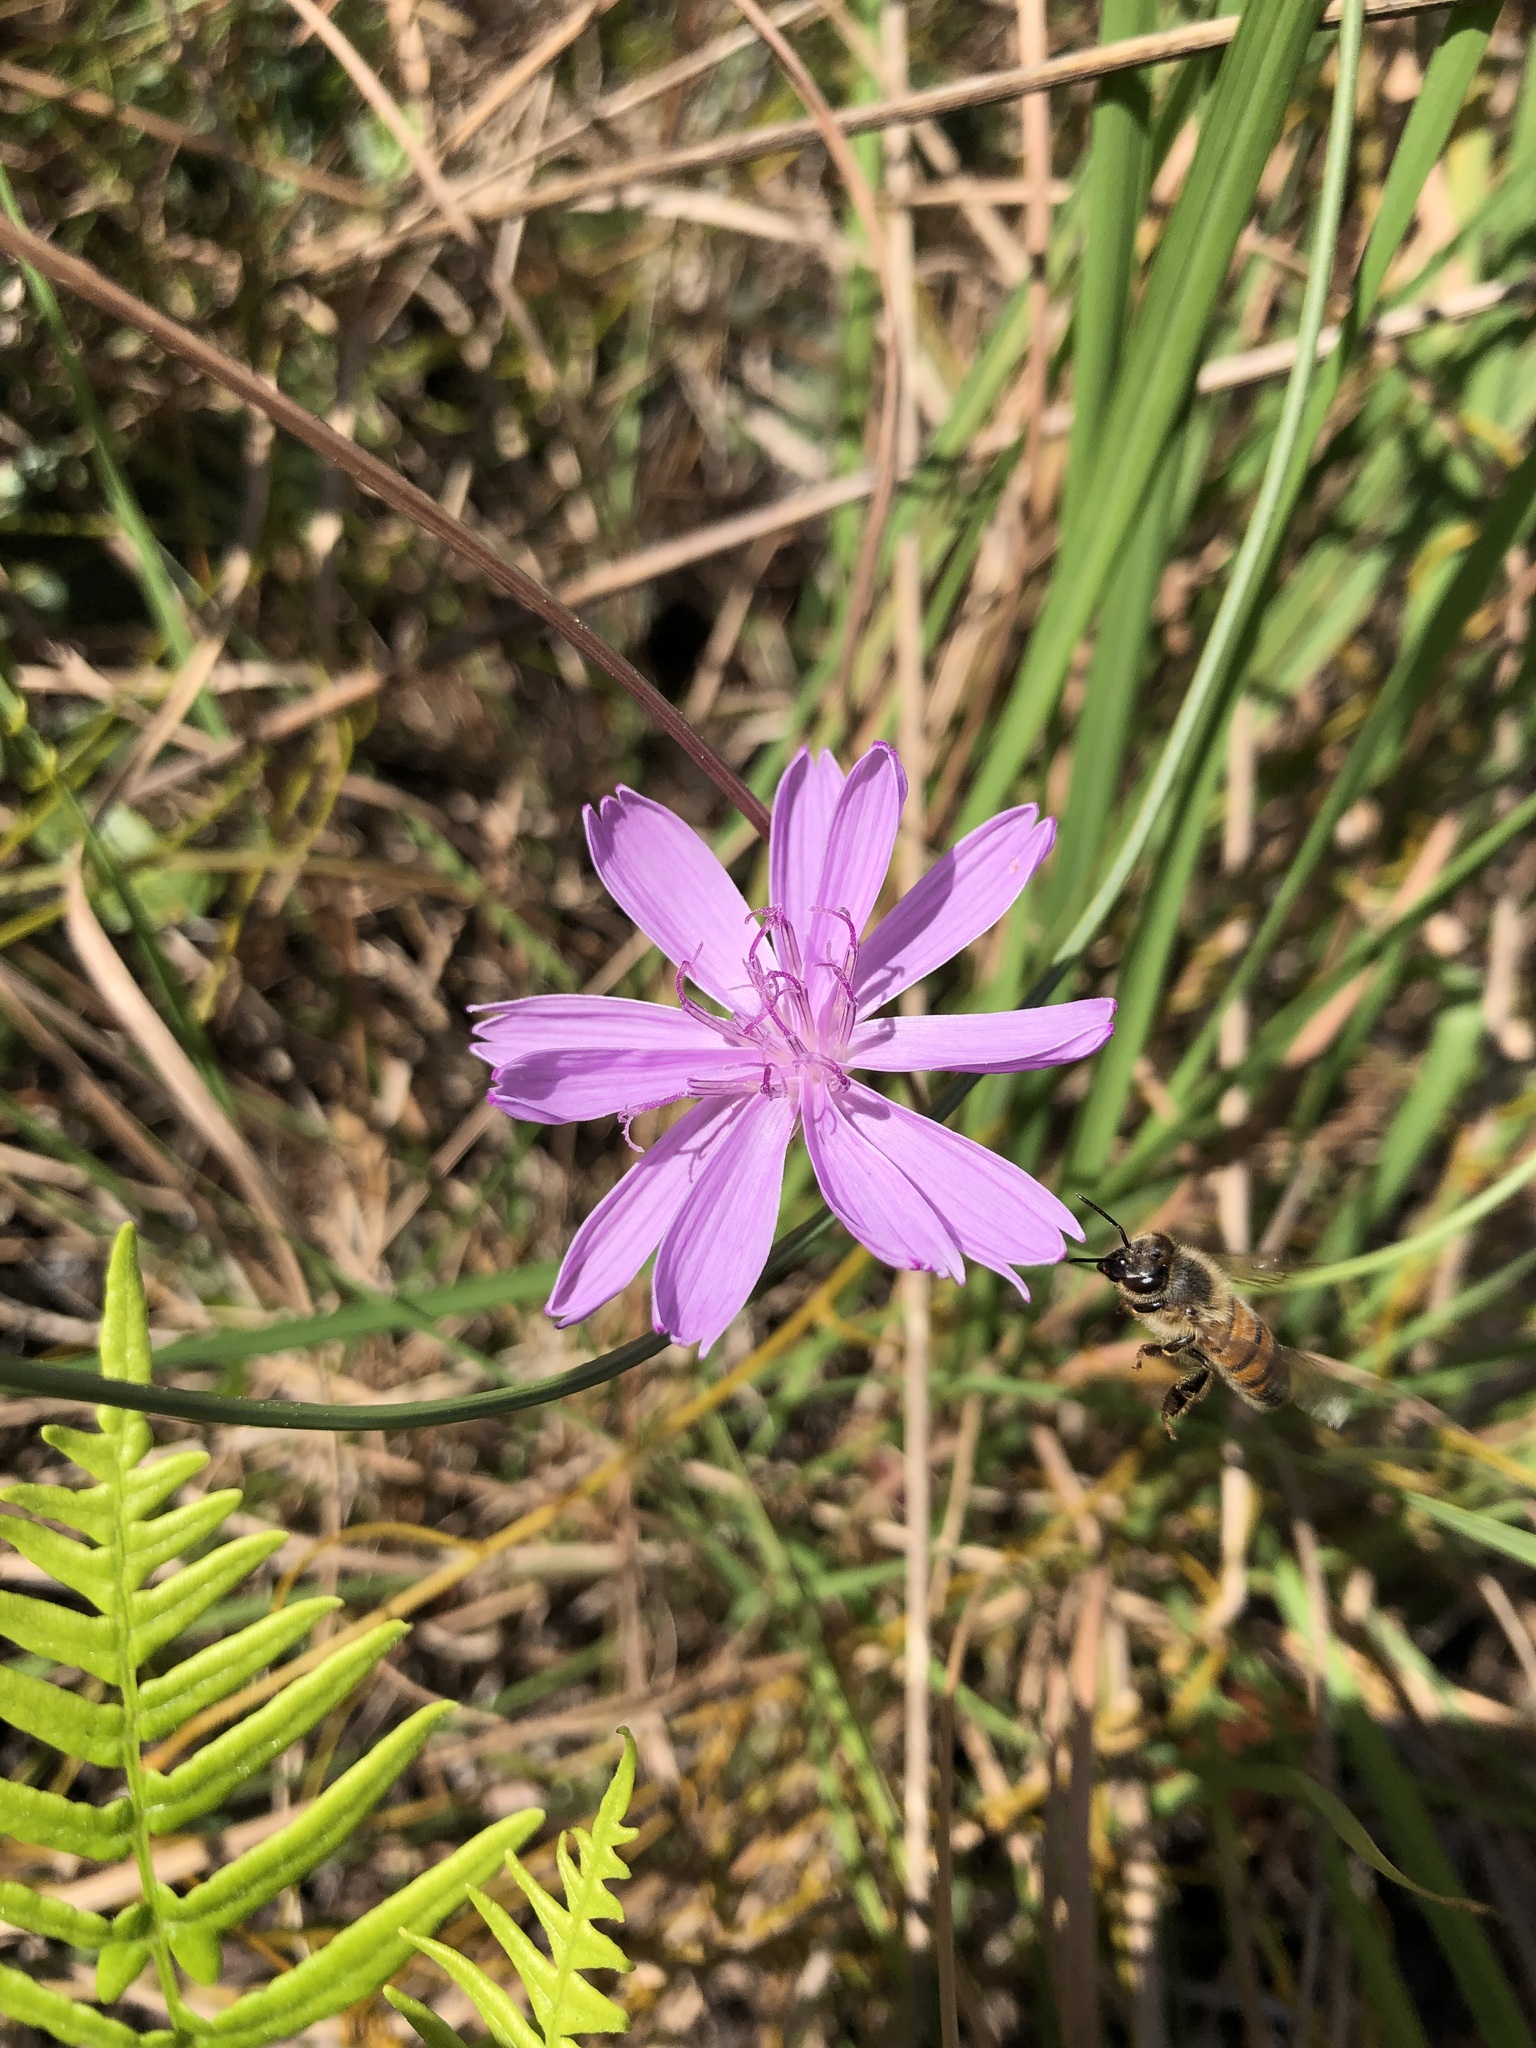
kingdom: Plantae
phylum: Tracheophyta
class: Magnoliopsida
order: Asterales
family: Asteraceae
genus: Lygodesmia
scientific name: Lygodesmia aphylla
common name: Rose-rush
